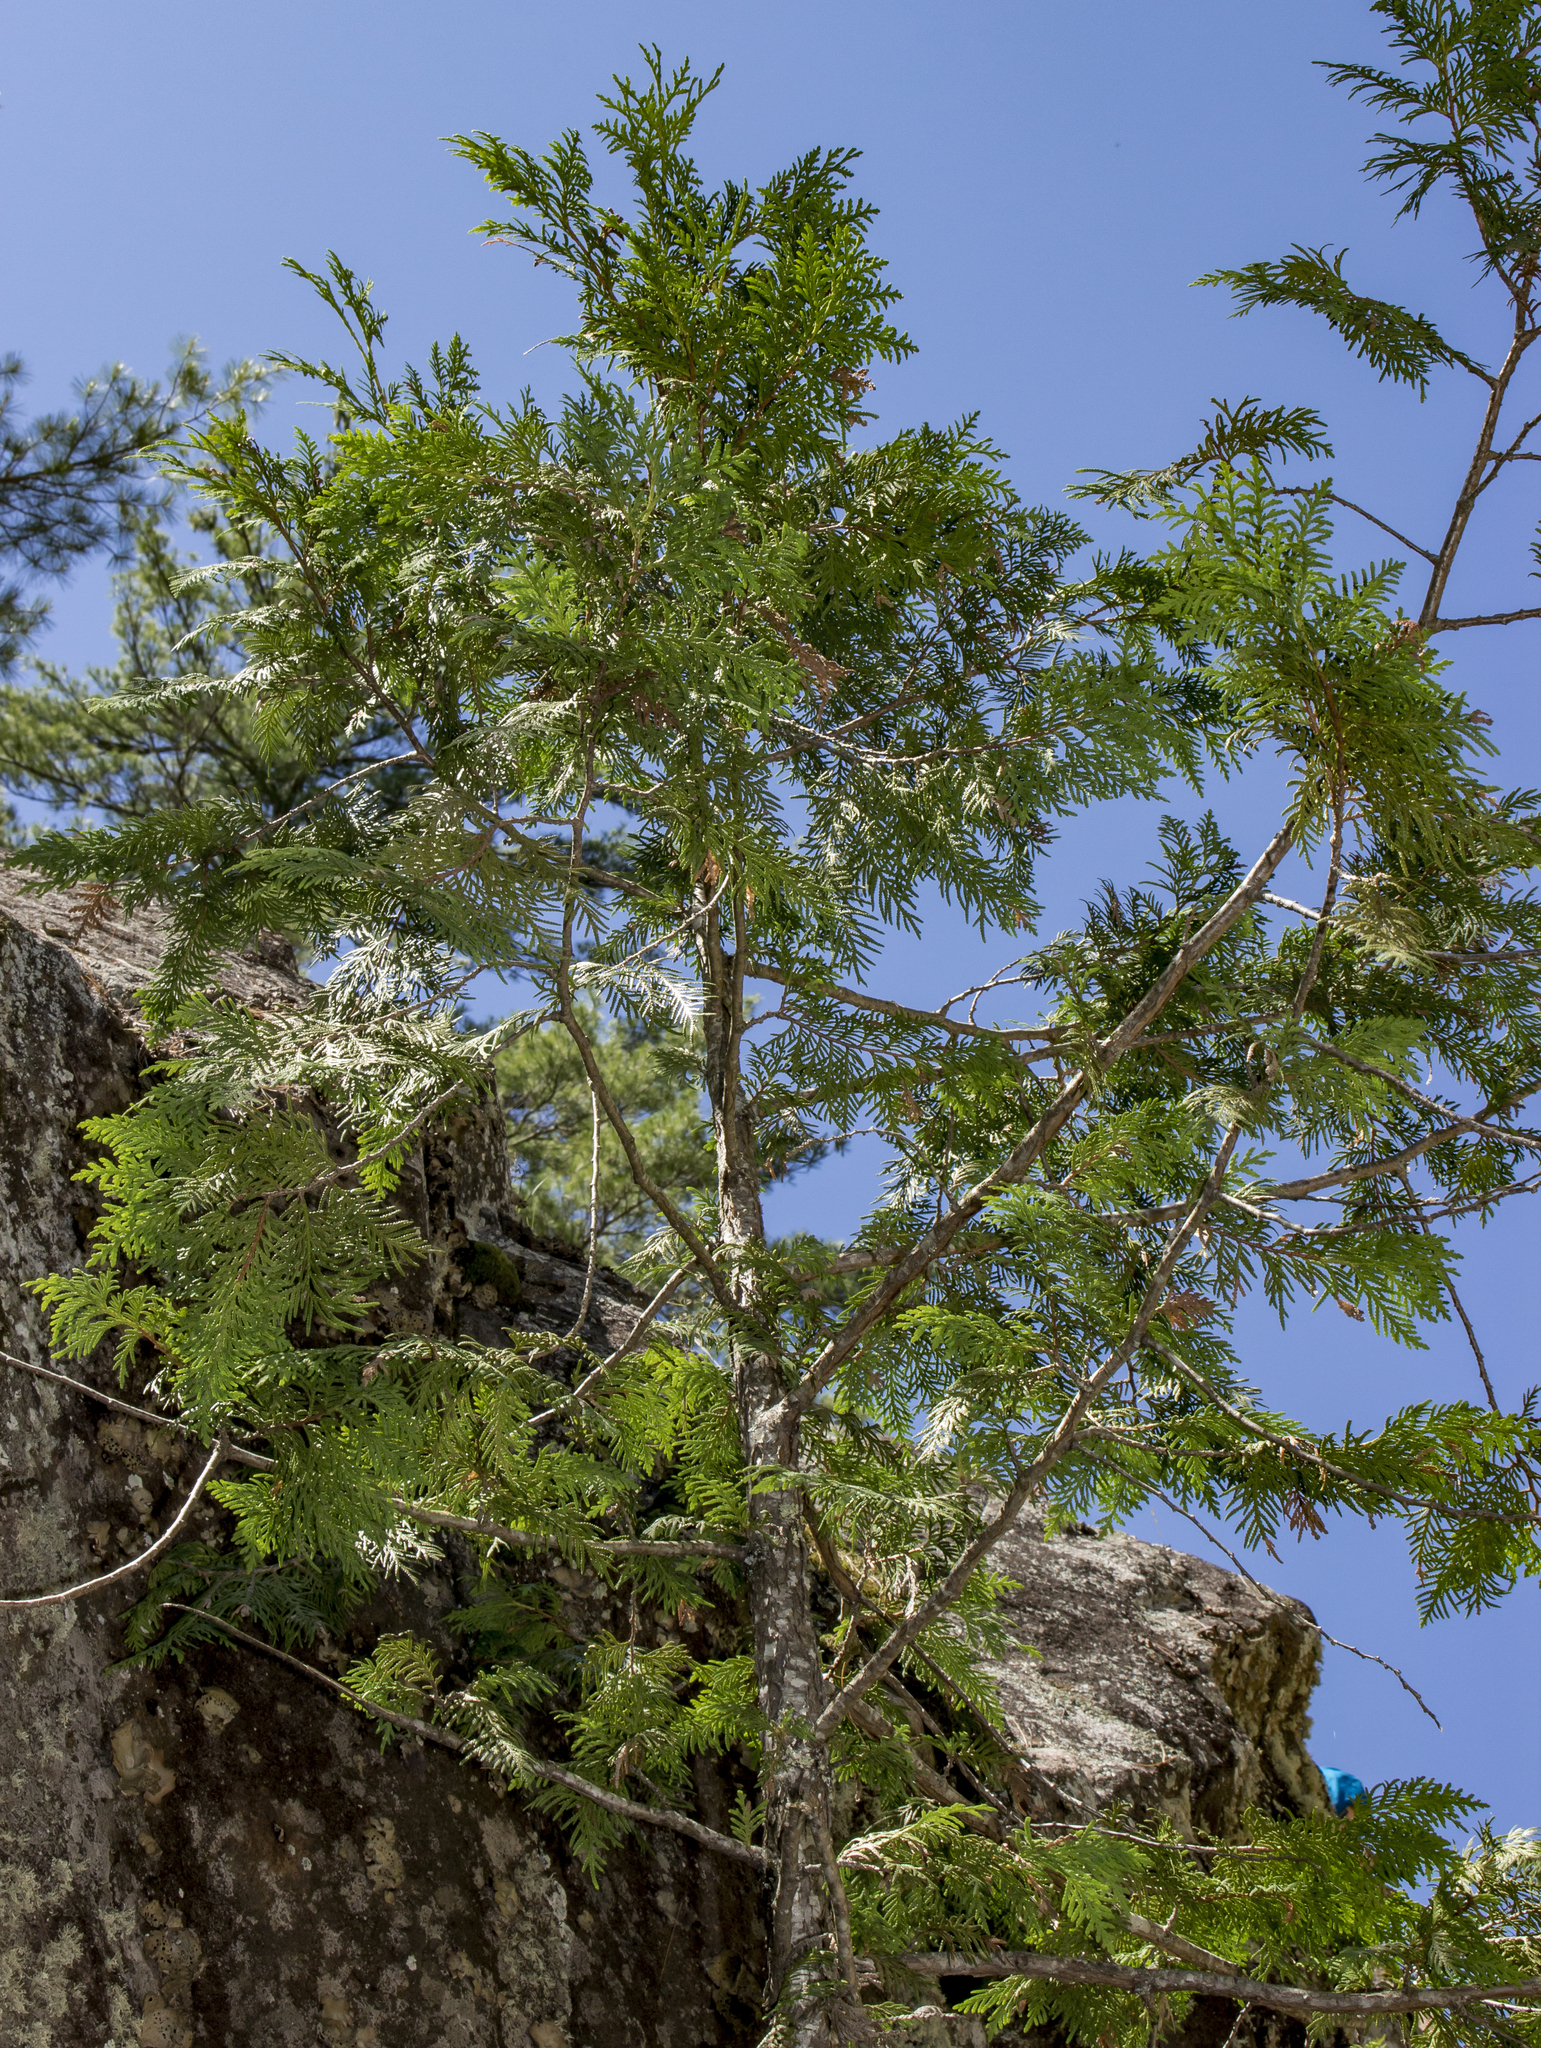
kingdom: Plantae
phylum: Tracheophyta
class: Pinopsida
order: Pinales
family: Cupressaceae
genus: Thuja
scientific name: Thuja occidentalis
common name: Northern white-cedar
